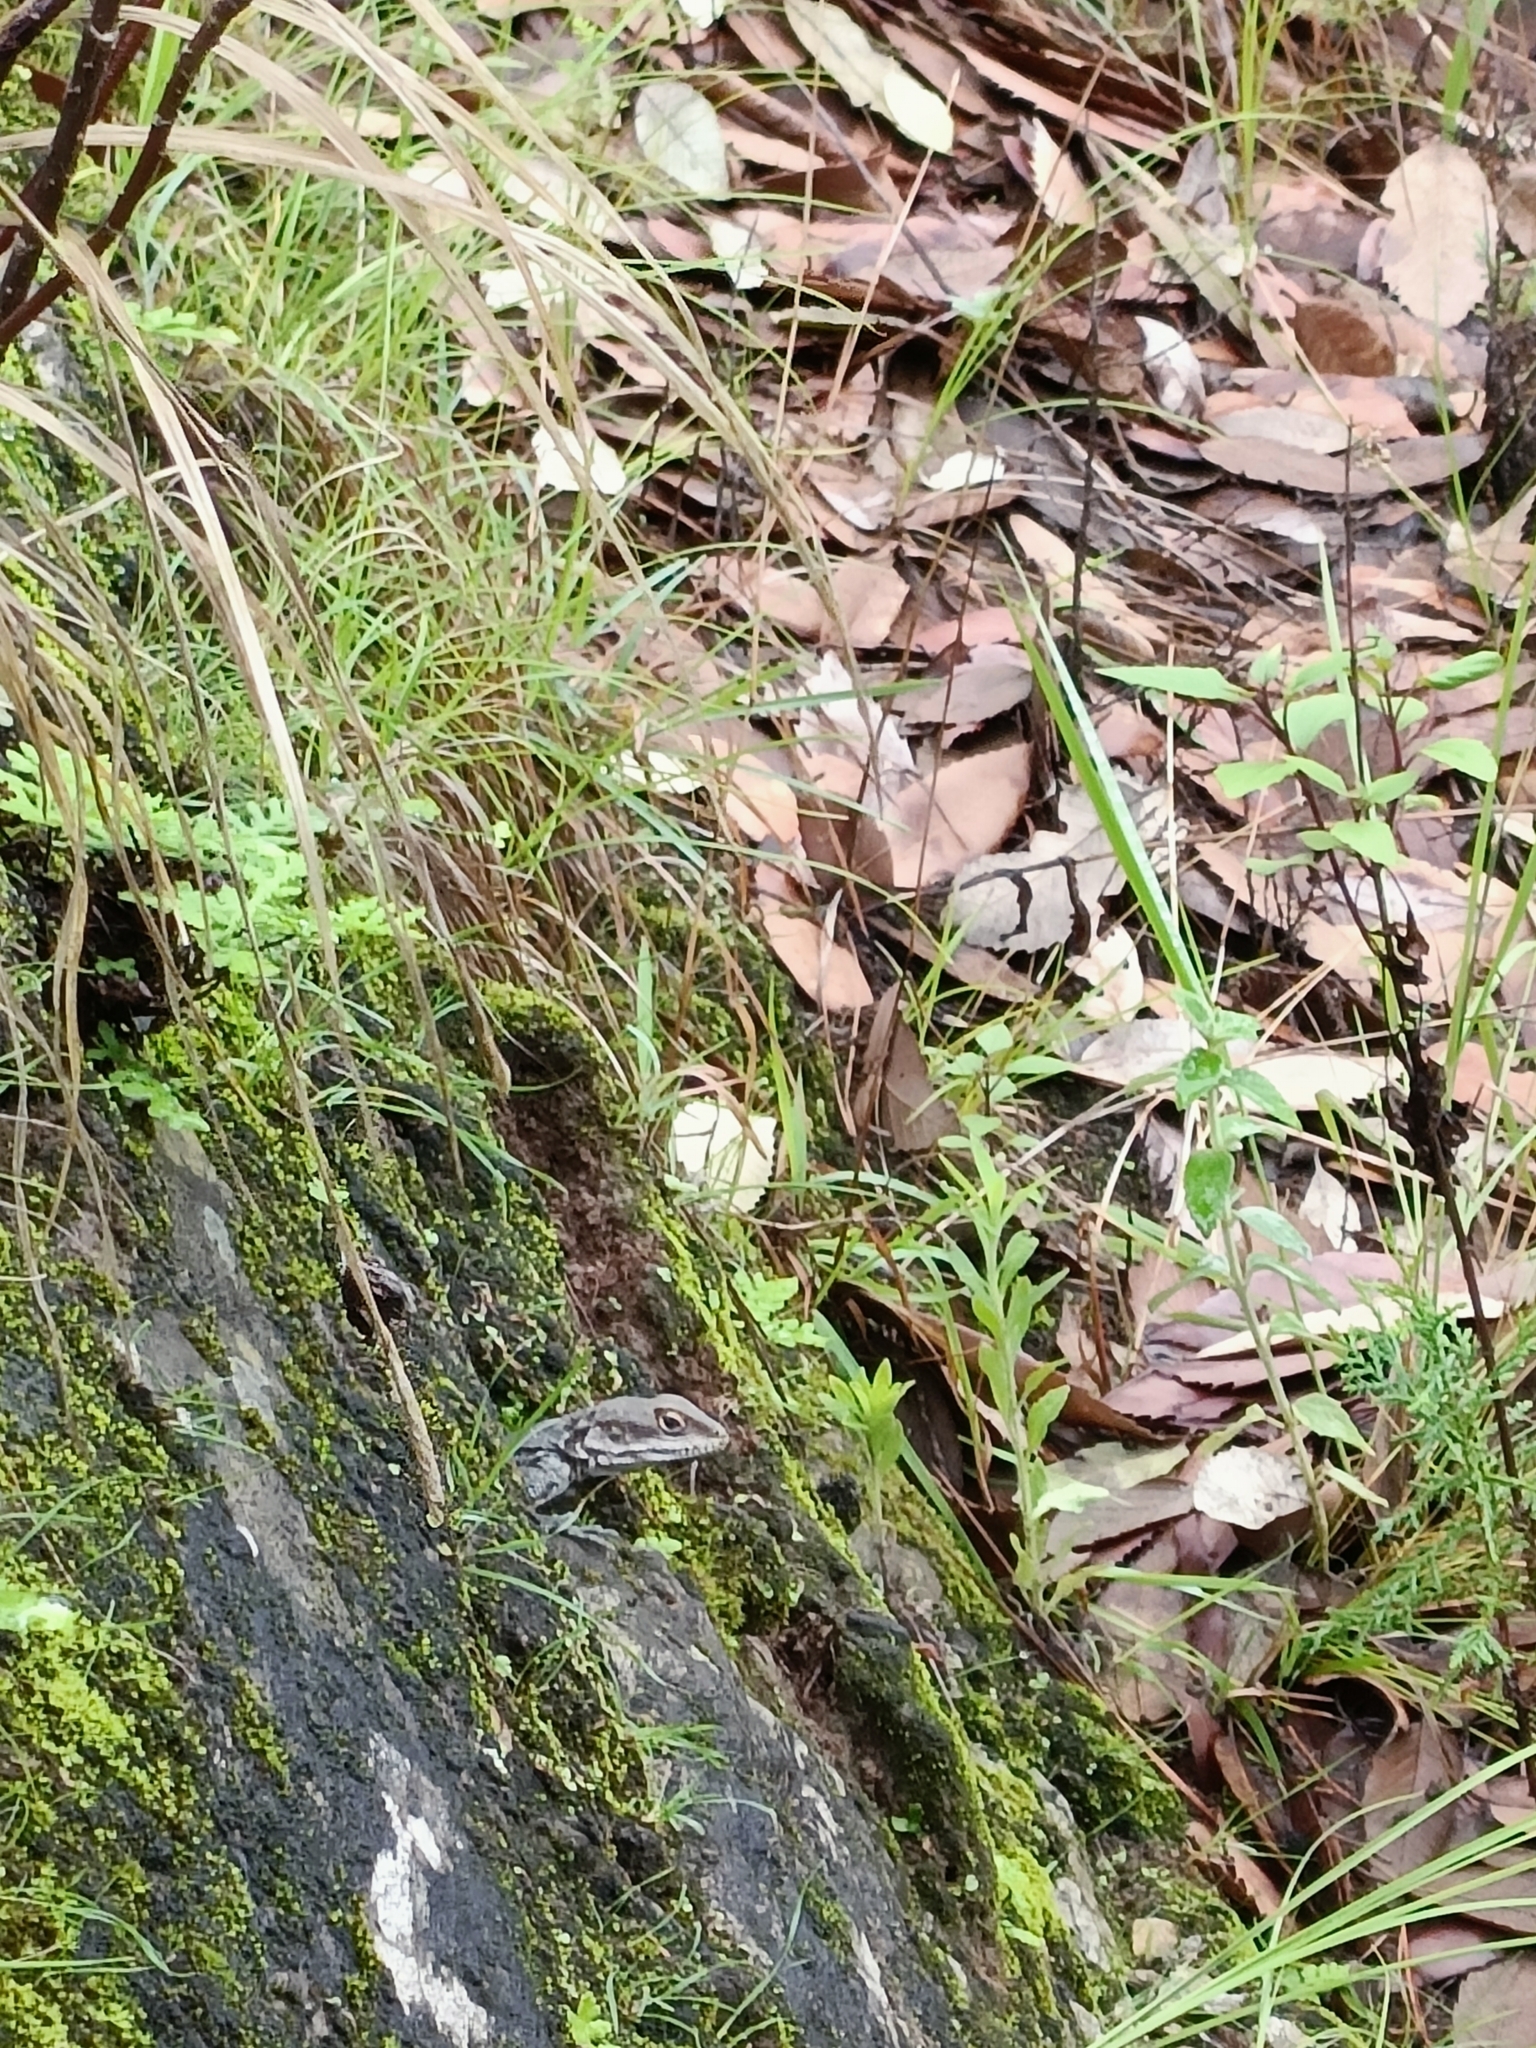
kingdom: Animalia
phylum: Chordata
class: Squamata
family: Agamidae
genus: Laudakia
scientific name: Laudakia tuberculata
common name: Kashmir rock agama
